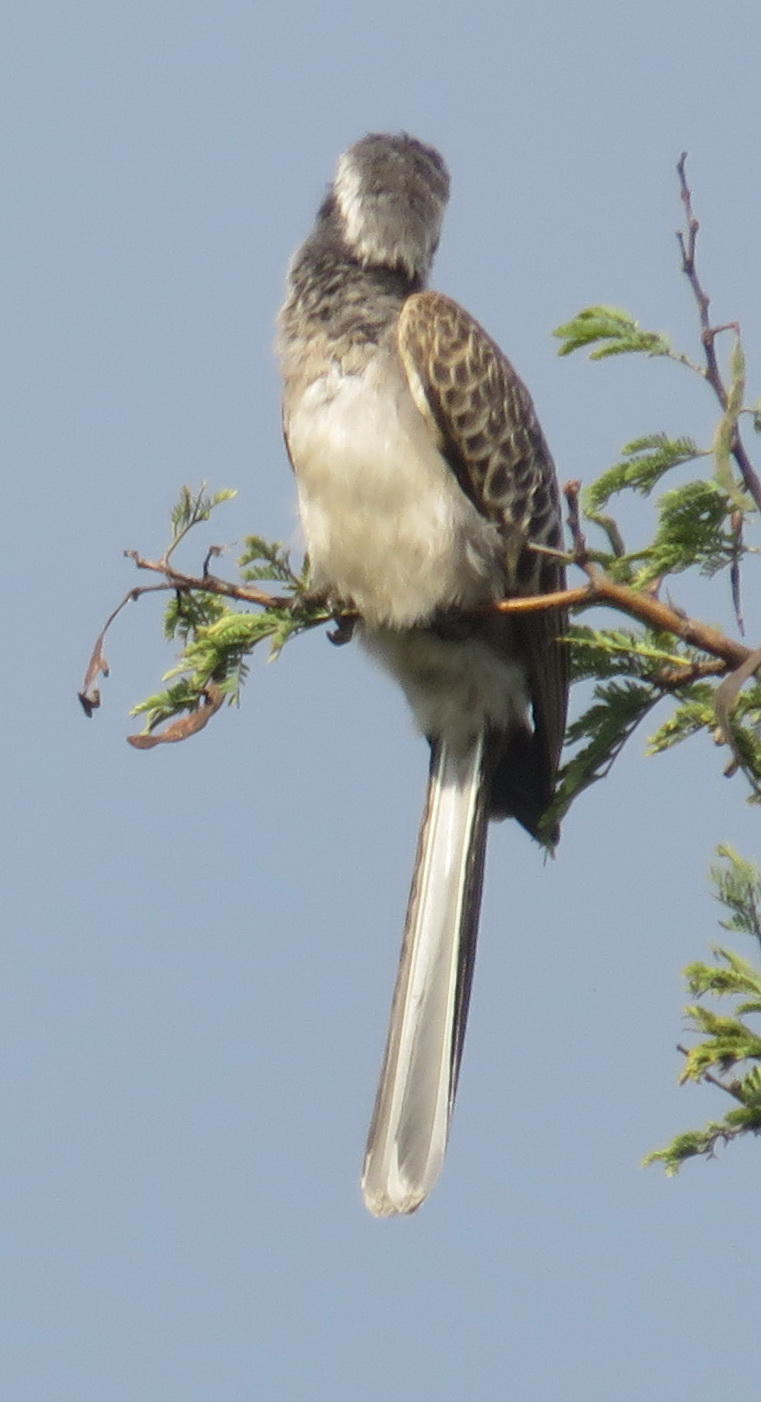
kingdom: Animalia
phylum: Chordata
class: Aves
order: Bucerotiformes
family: Bucerotidae
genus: Lophoceros
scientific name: Lophoceros nasutus
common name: African grey hornbill
